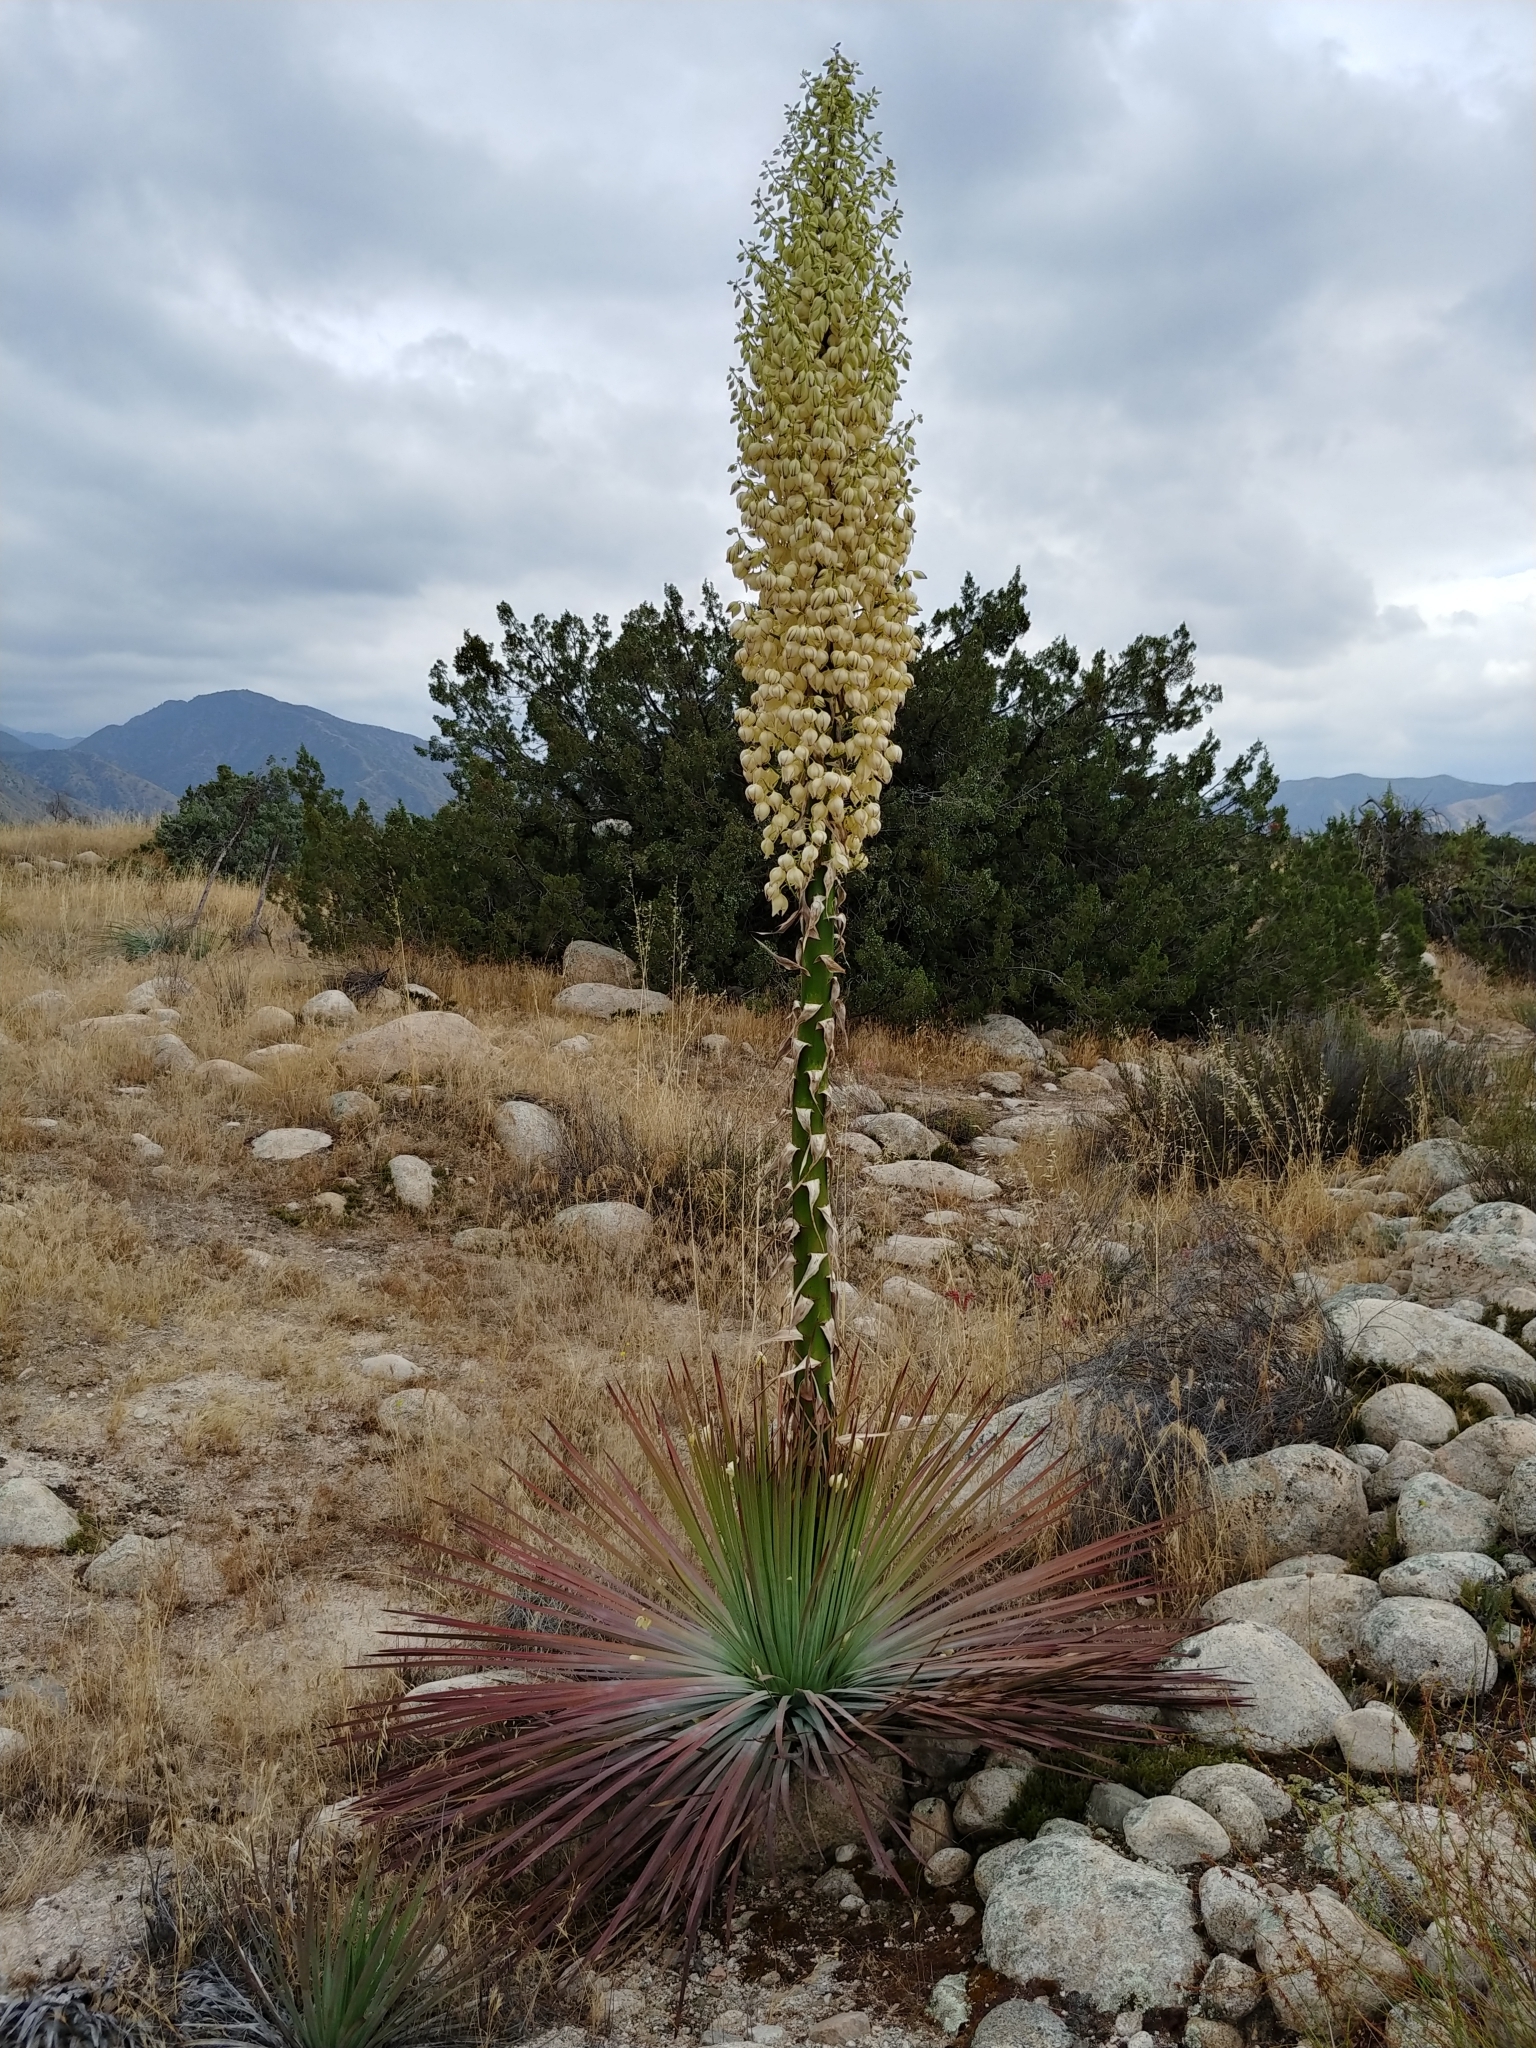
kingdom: Plantae
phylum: Tracheophyta
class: Liliopsida
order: Asparagales
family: Asparagaceae
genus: Hesperoyucca
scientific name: Hesperoyucca whipplei
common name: Our lord's-candle
